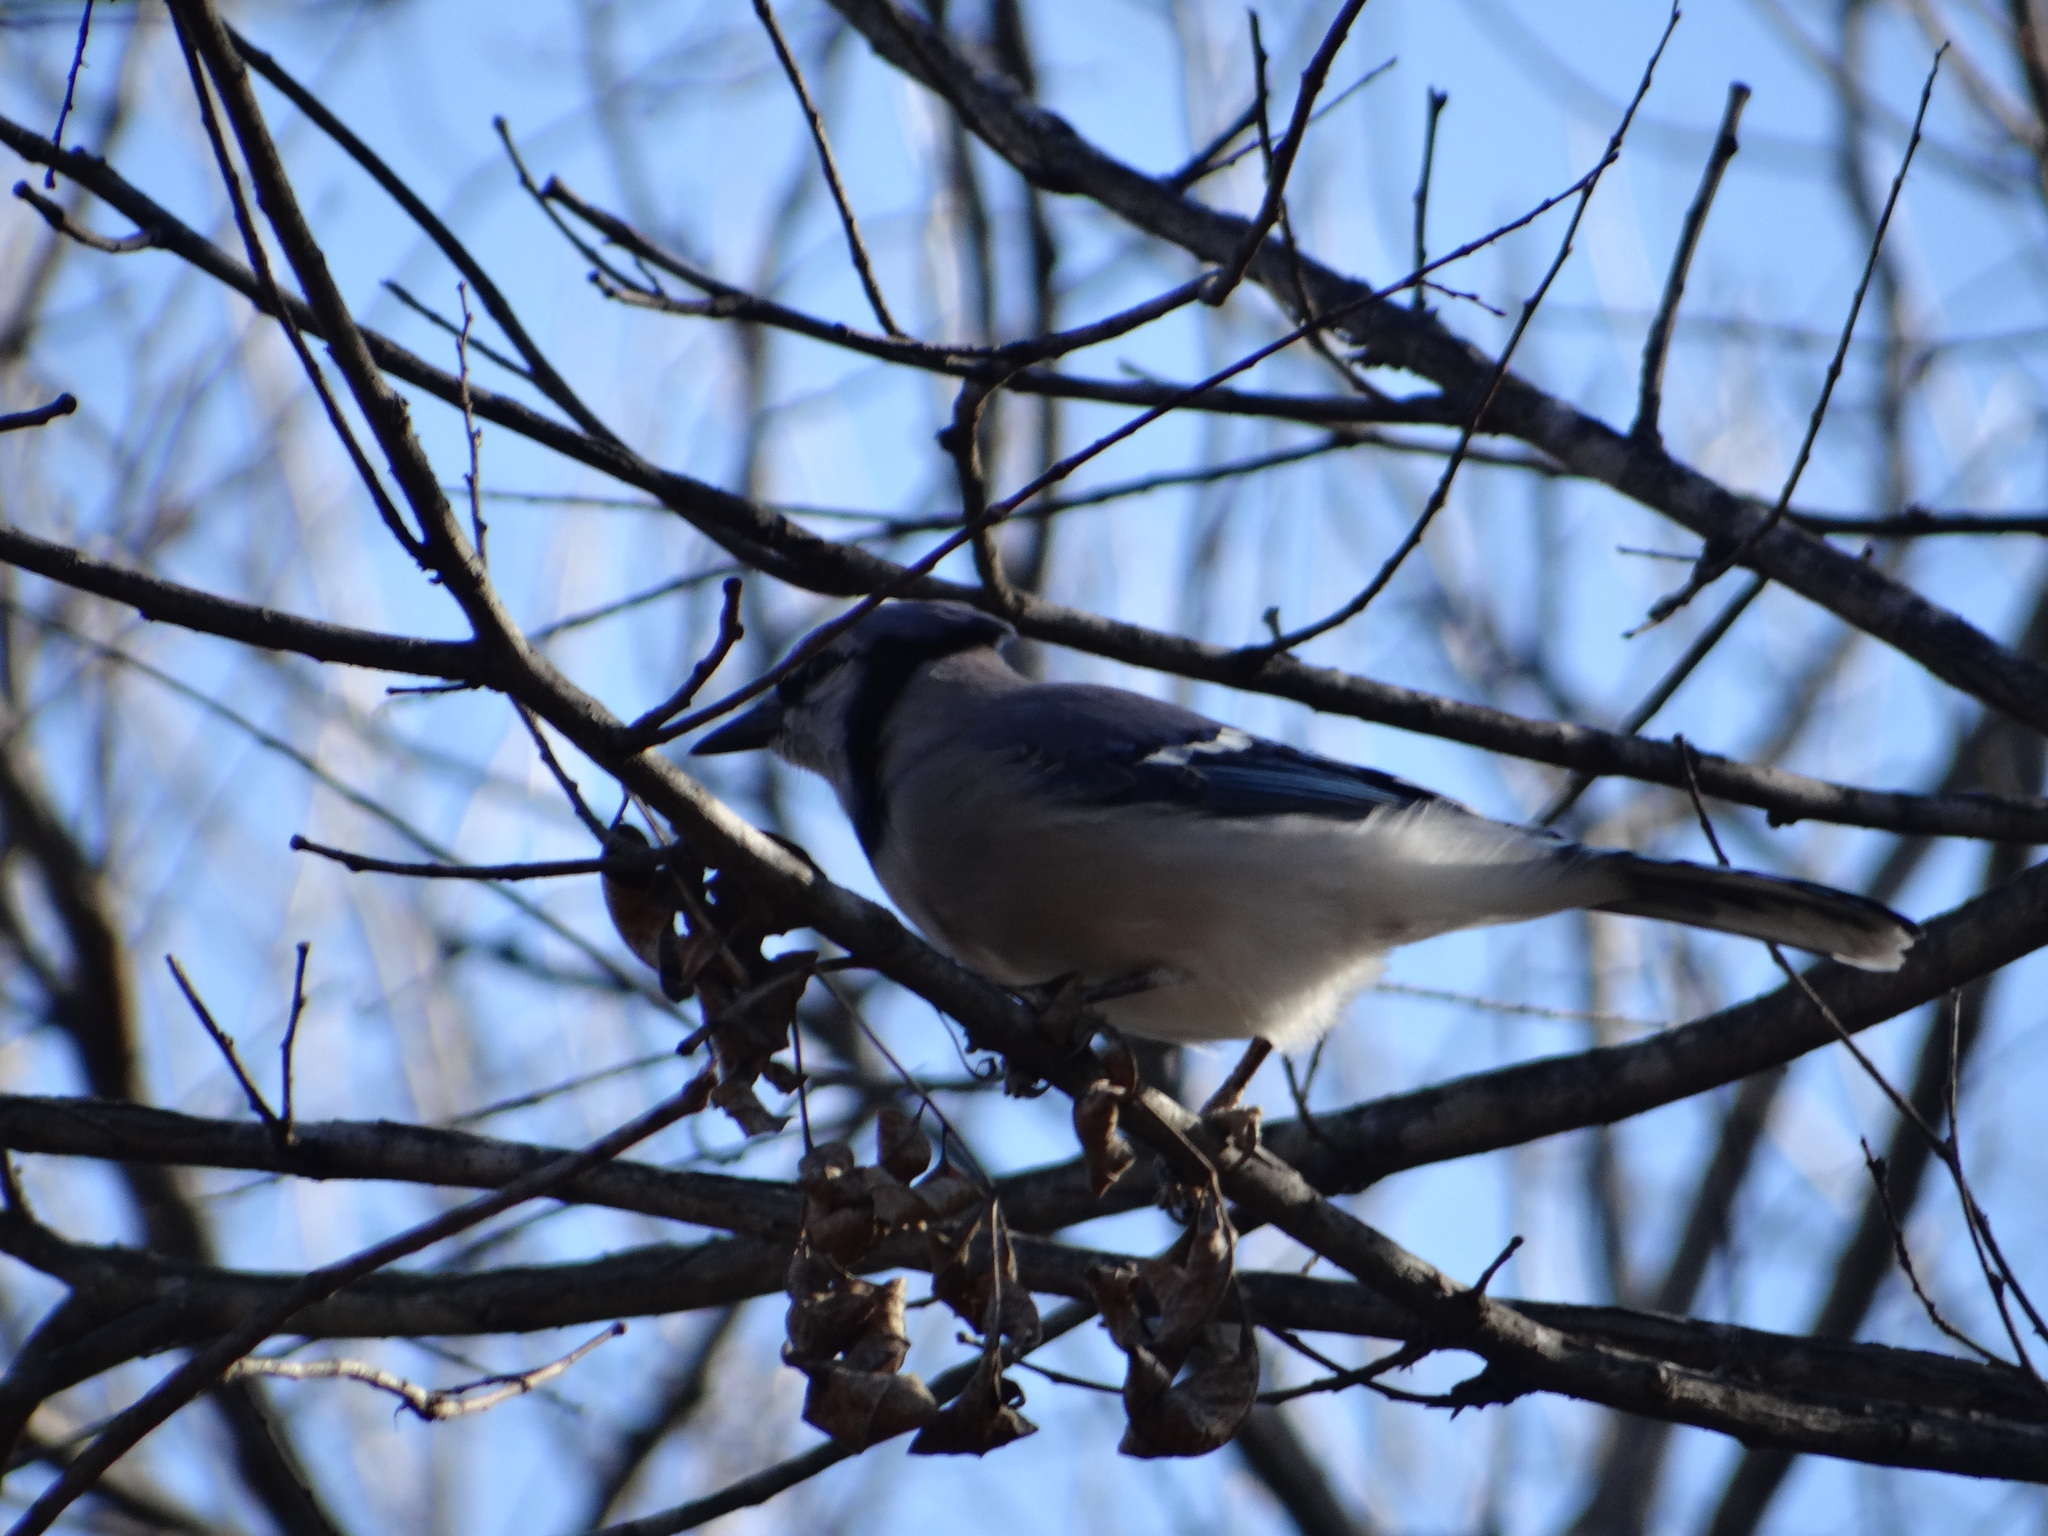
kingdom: Animalia
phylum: Chordata
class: Aves
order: Passeriformes
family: Corvidae
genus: Cyanocitta
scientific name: Cyanocitta cristata
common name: Blue jay
